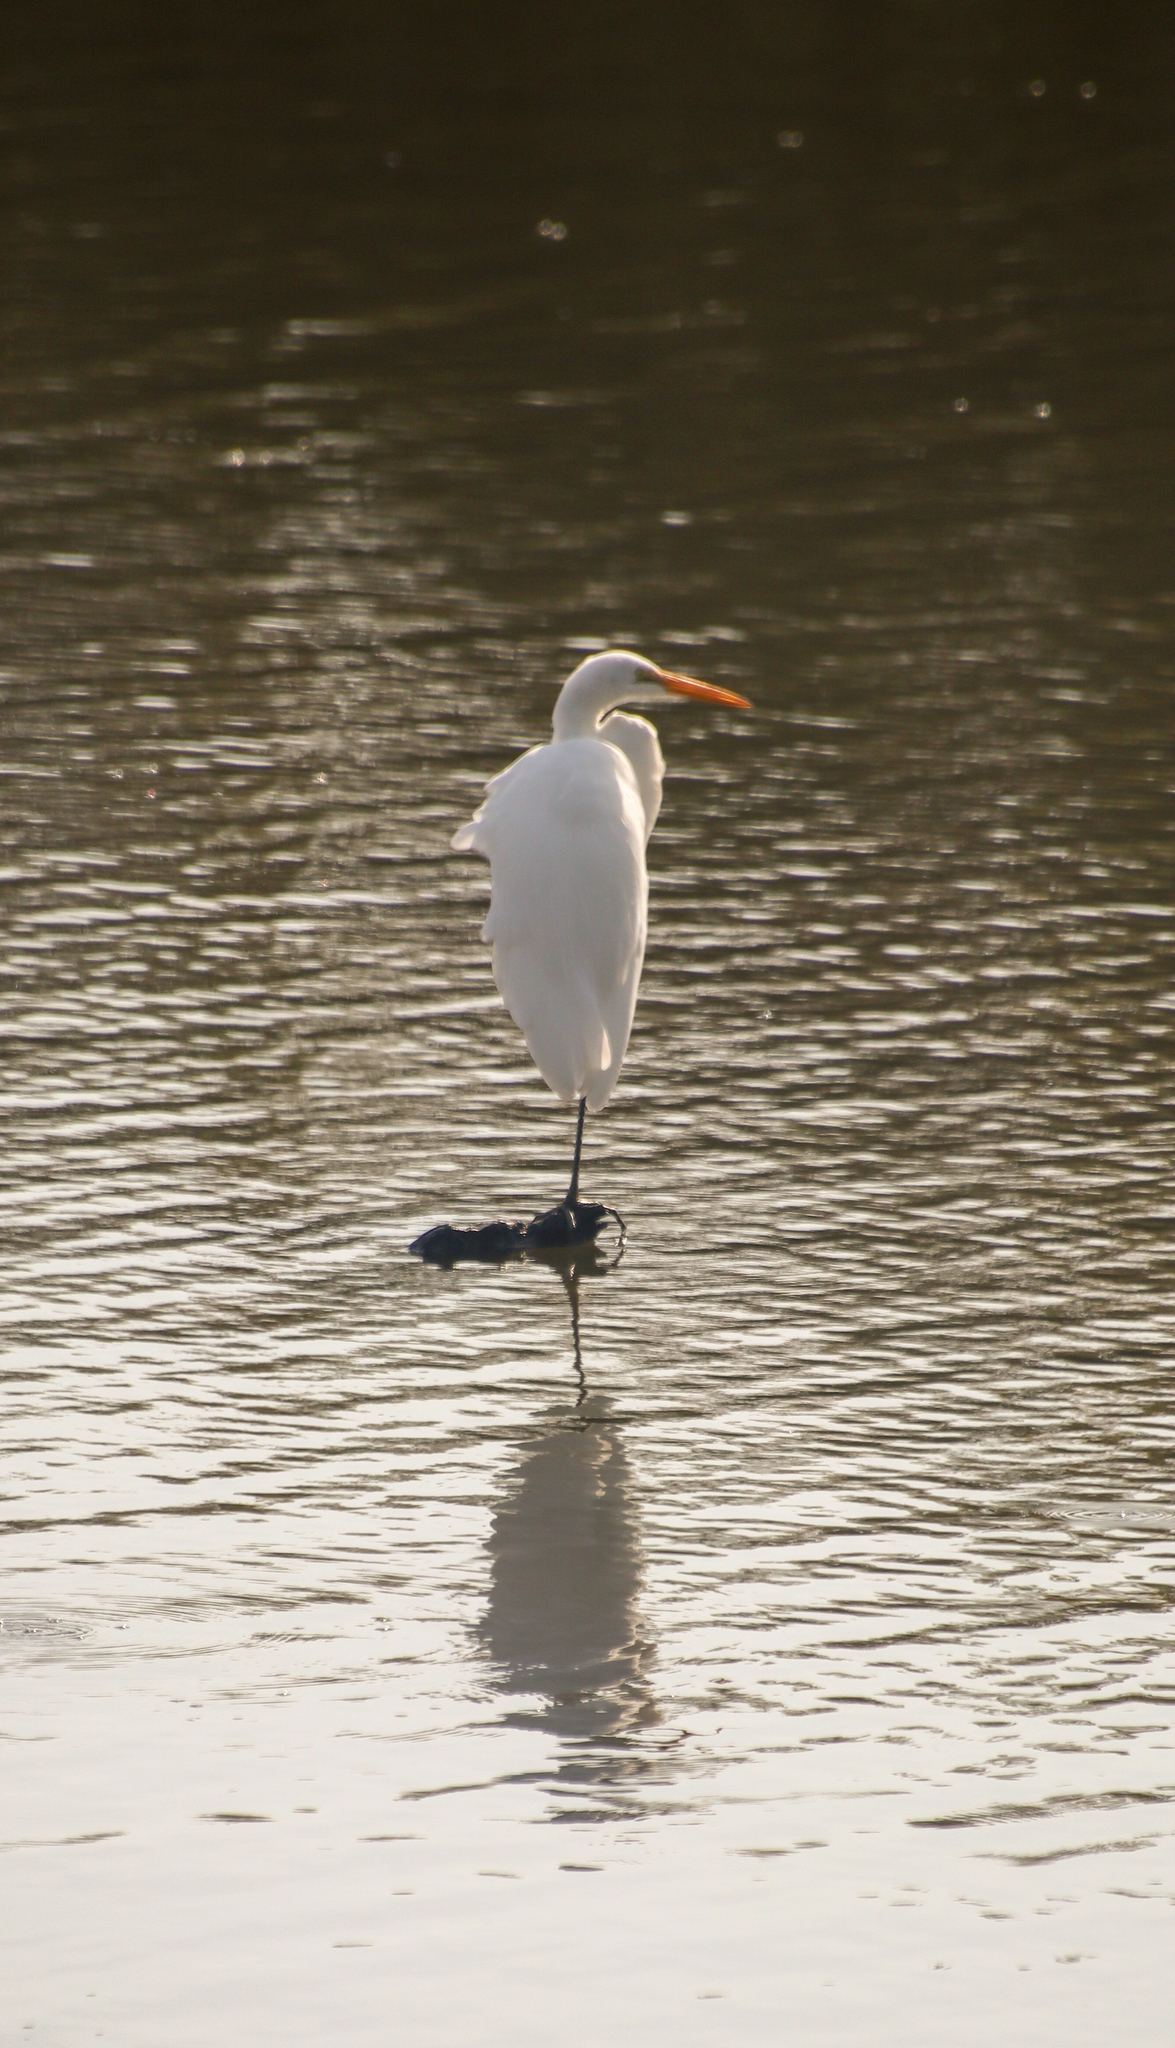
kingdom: Animalia
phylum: Chordata
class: Aves
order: Pelecaniformes
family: Ardeidae
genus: Ardea
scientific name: Ardea alba
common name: Great egret
